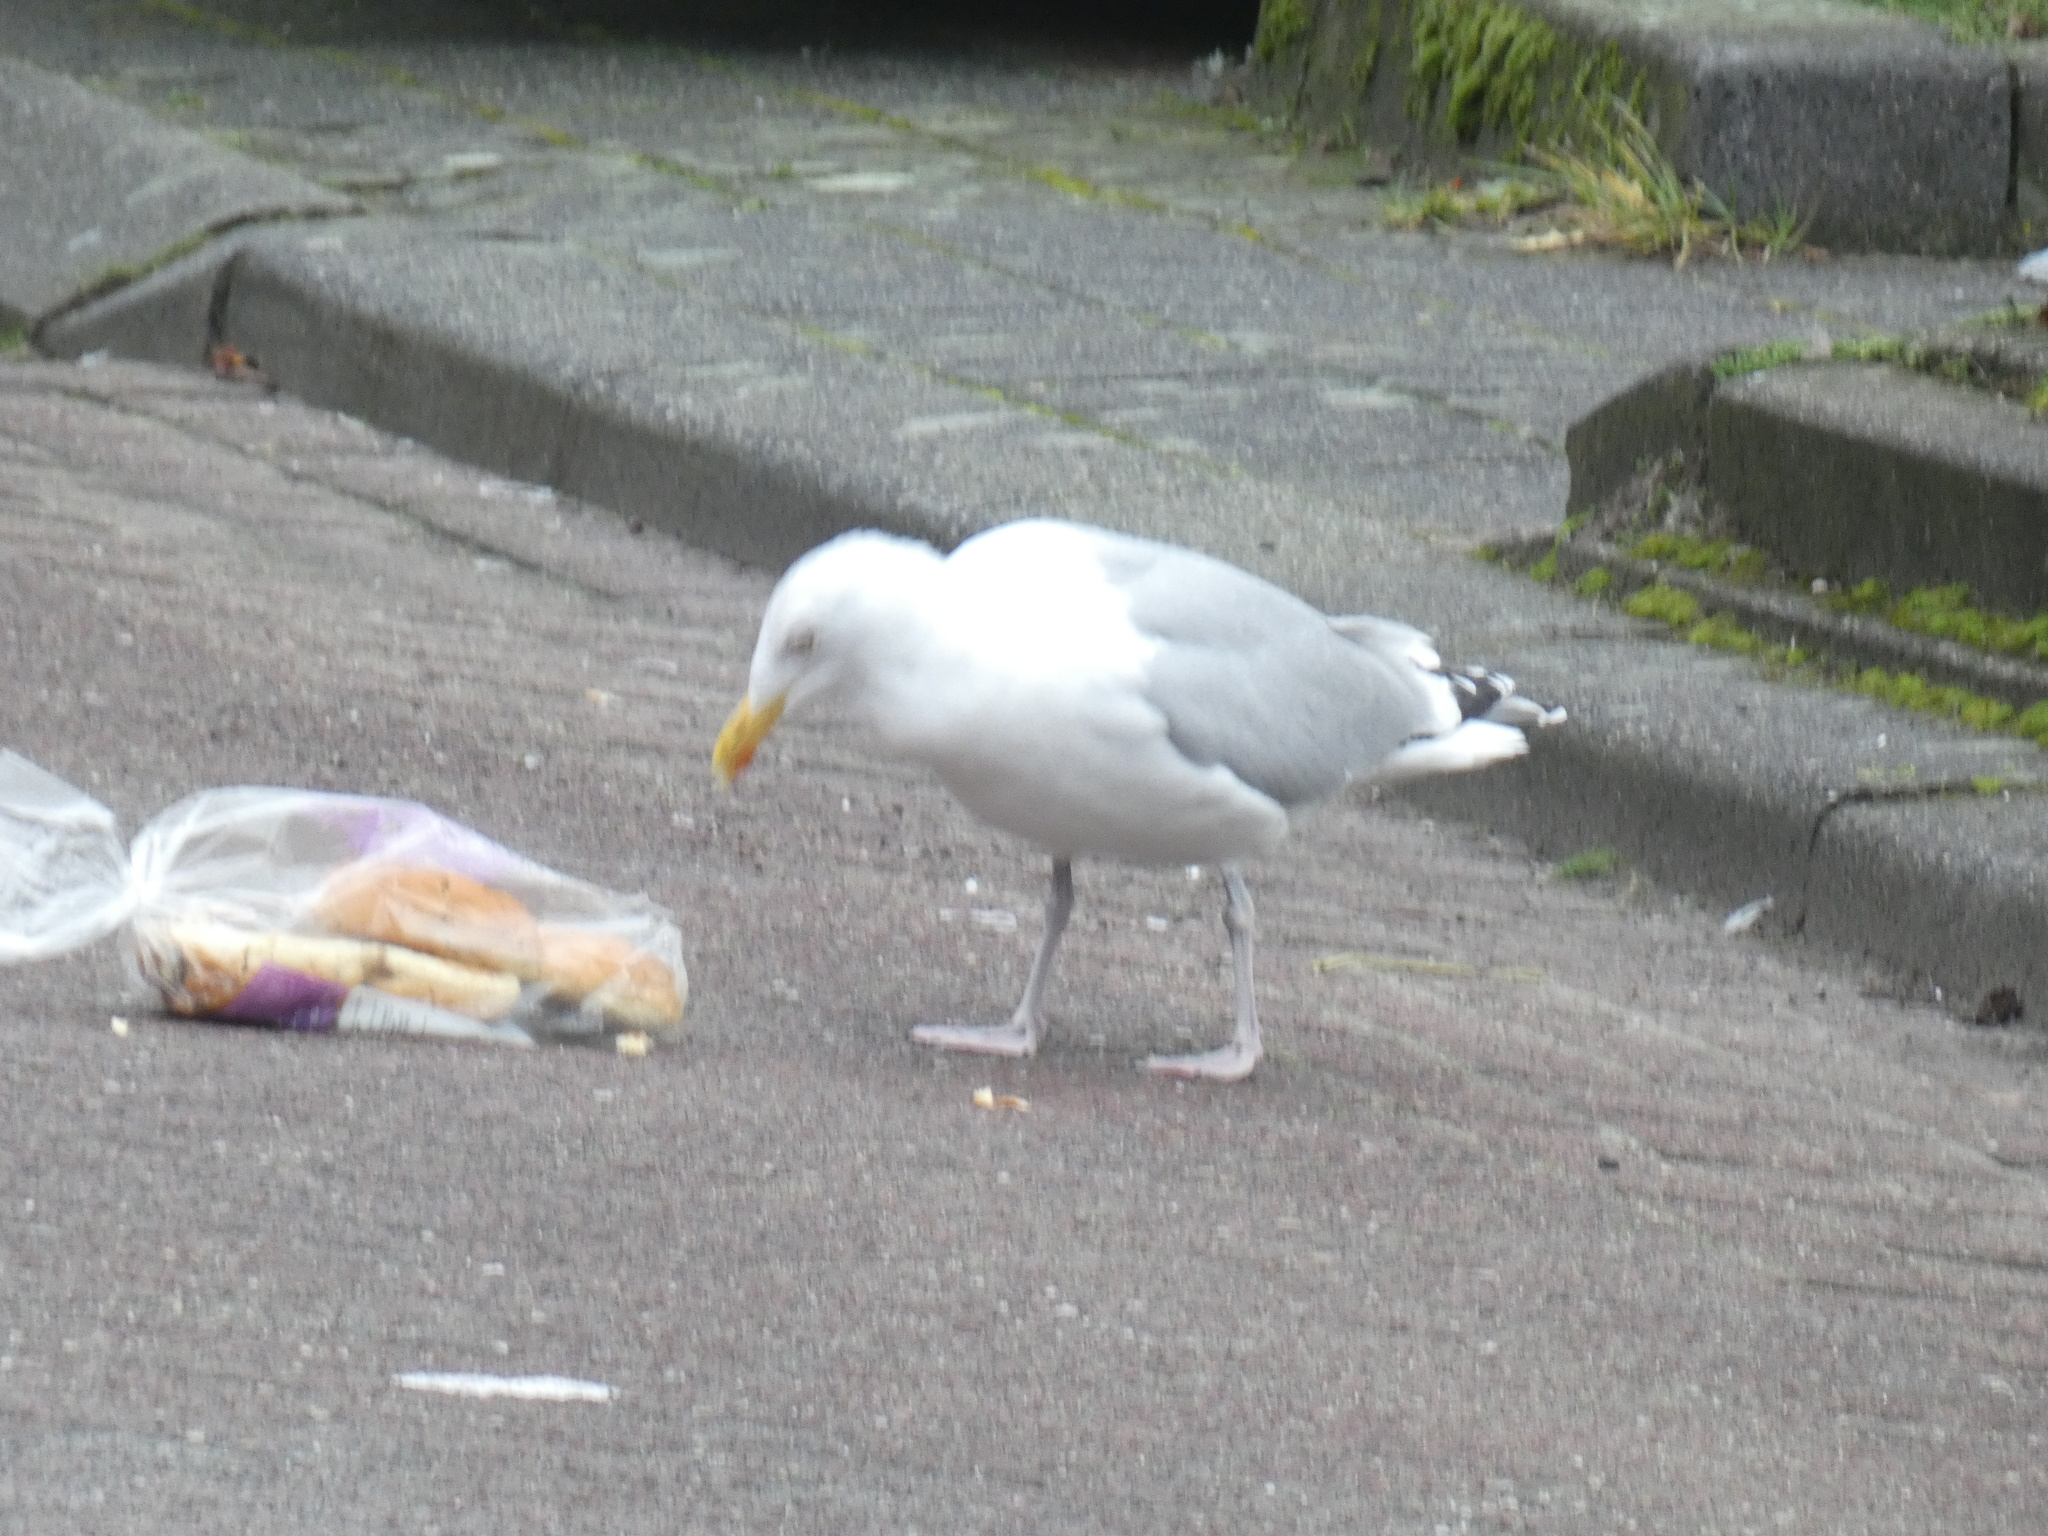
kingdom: Animalia
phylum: Chordata
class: Aves
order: Charadriiformes
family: Laridae
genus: Larus
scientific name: Larus argentatus
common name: Herring gull
